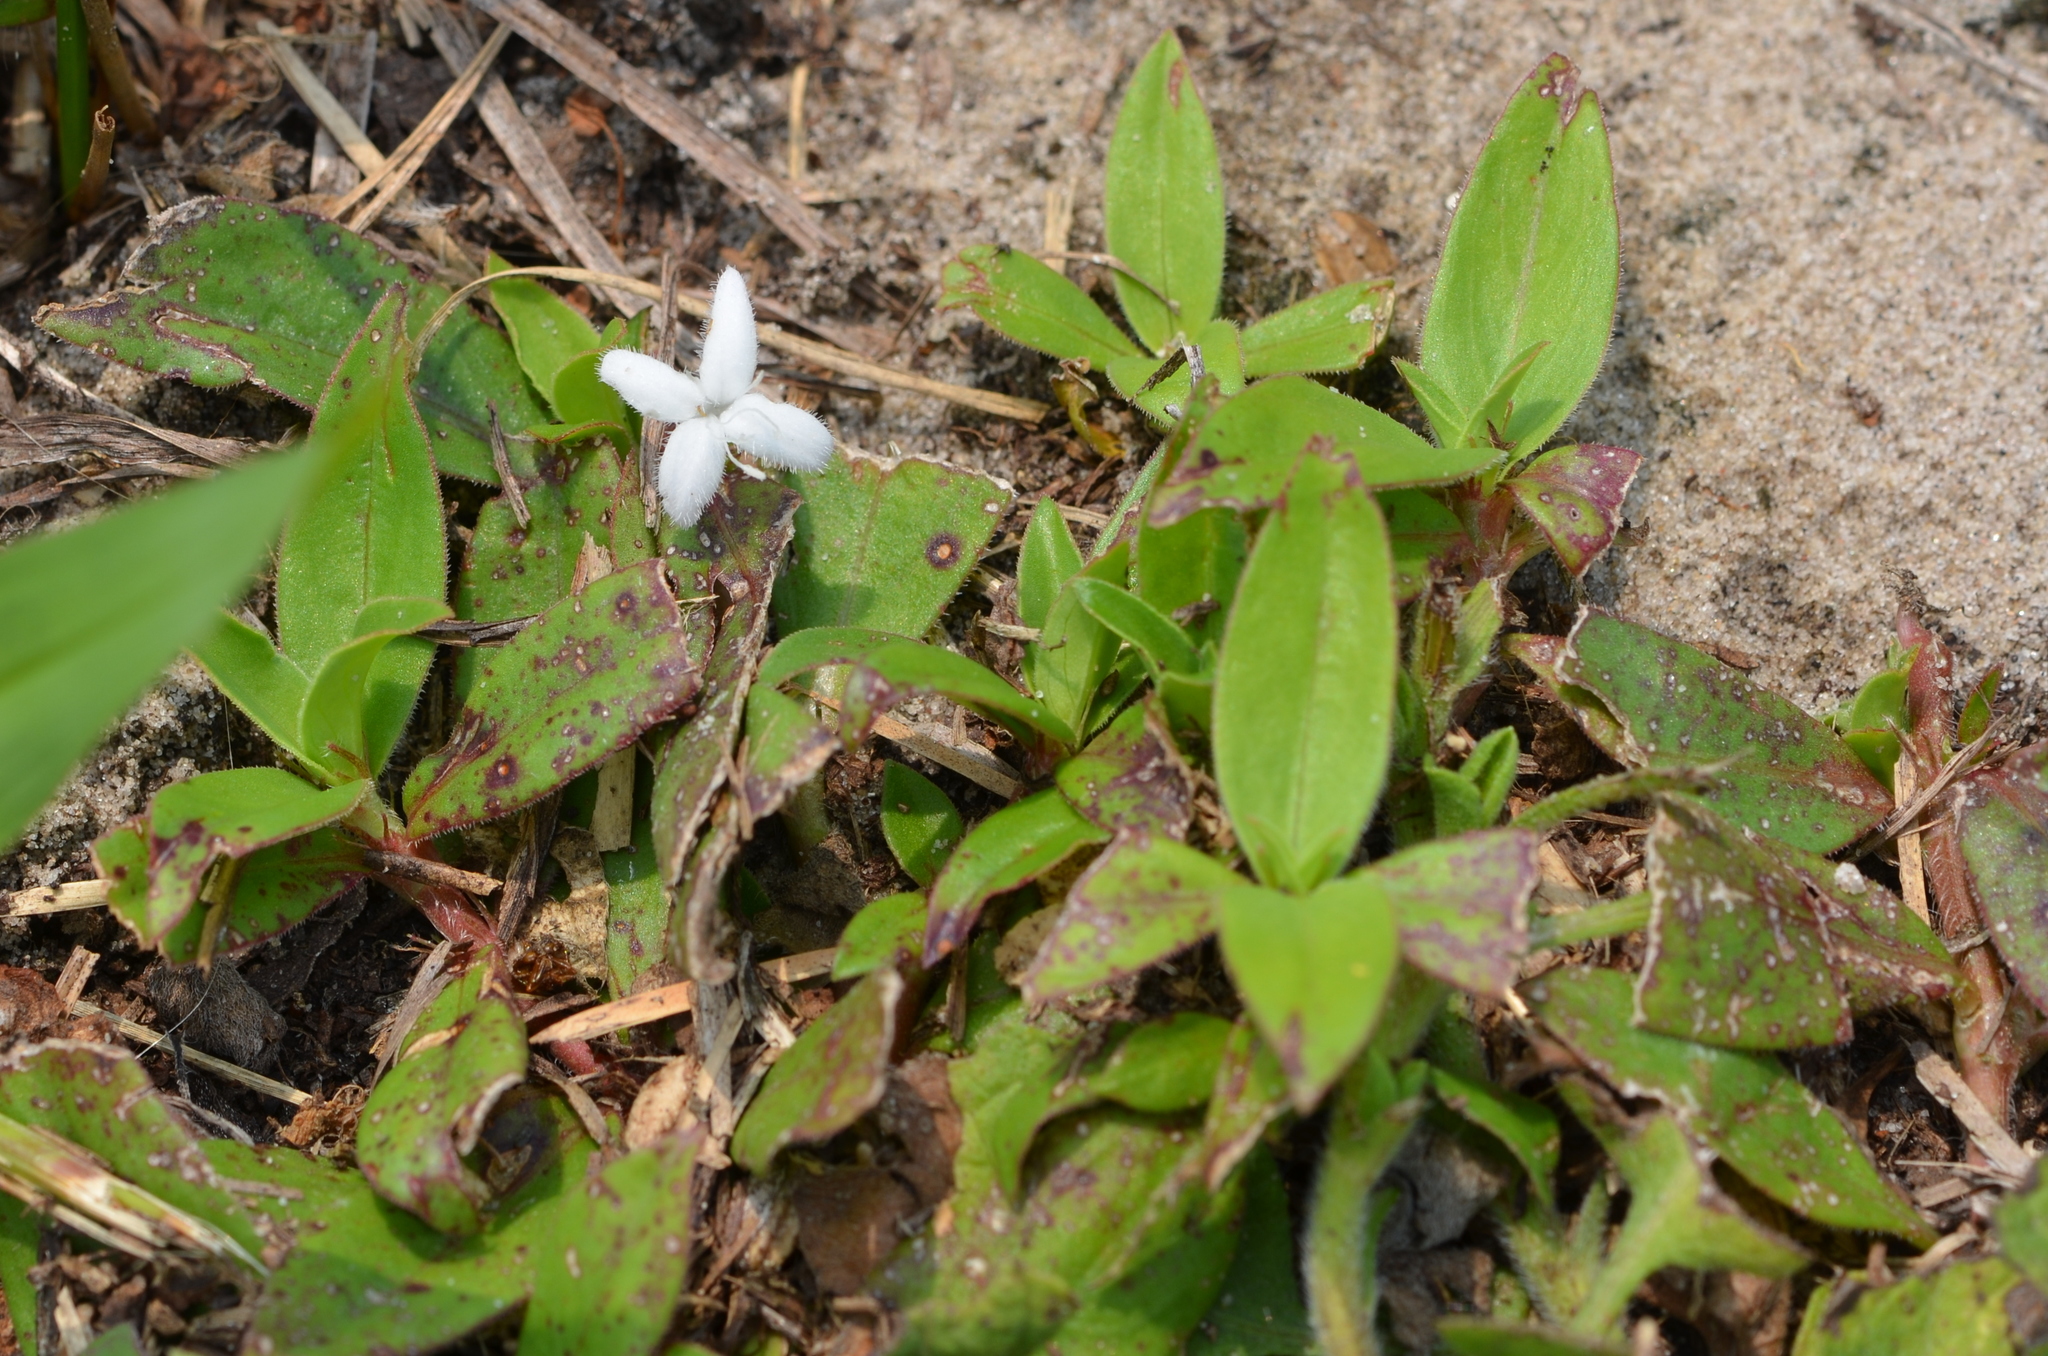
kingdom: Plantae
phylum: Tracheophyta
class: Magnoliopsida
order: Gentianales
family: Rubiaceae
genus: Diodia
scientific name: Diodia virginiana
